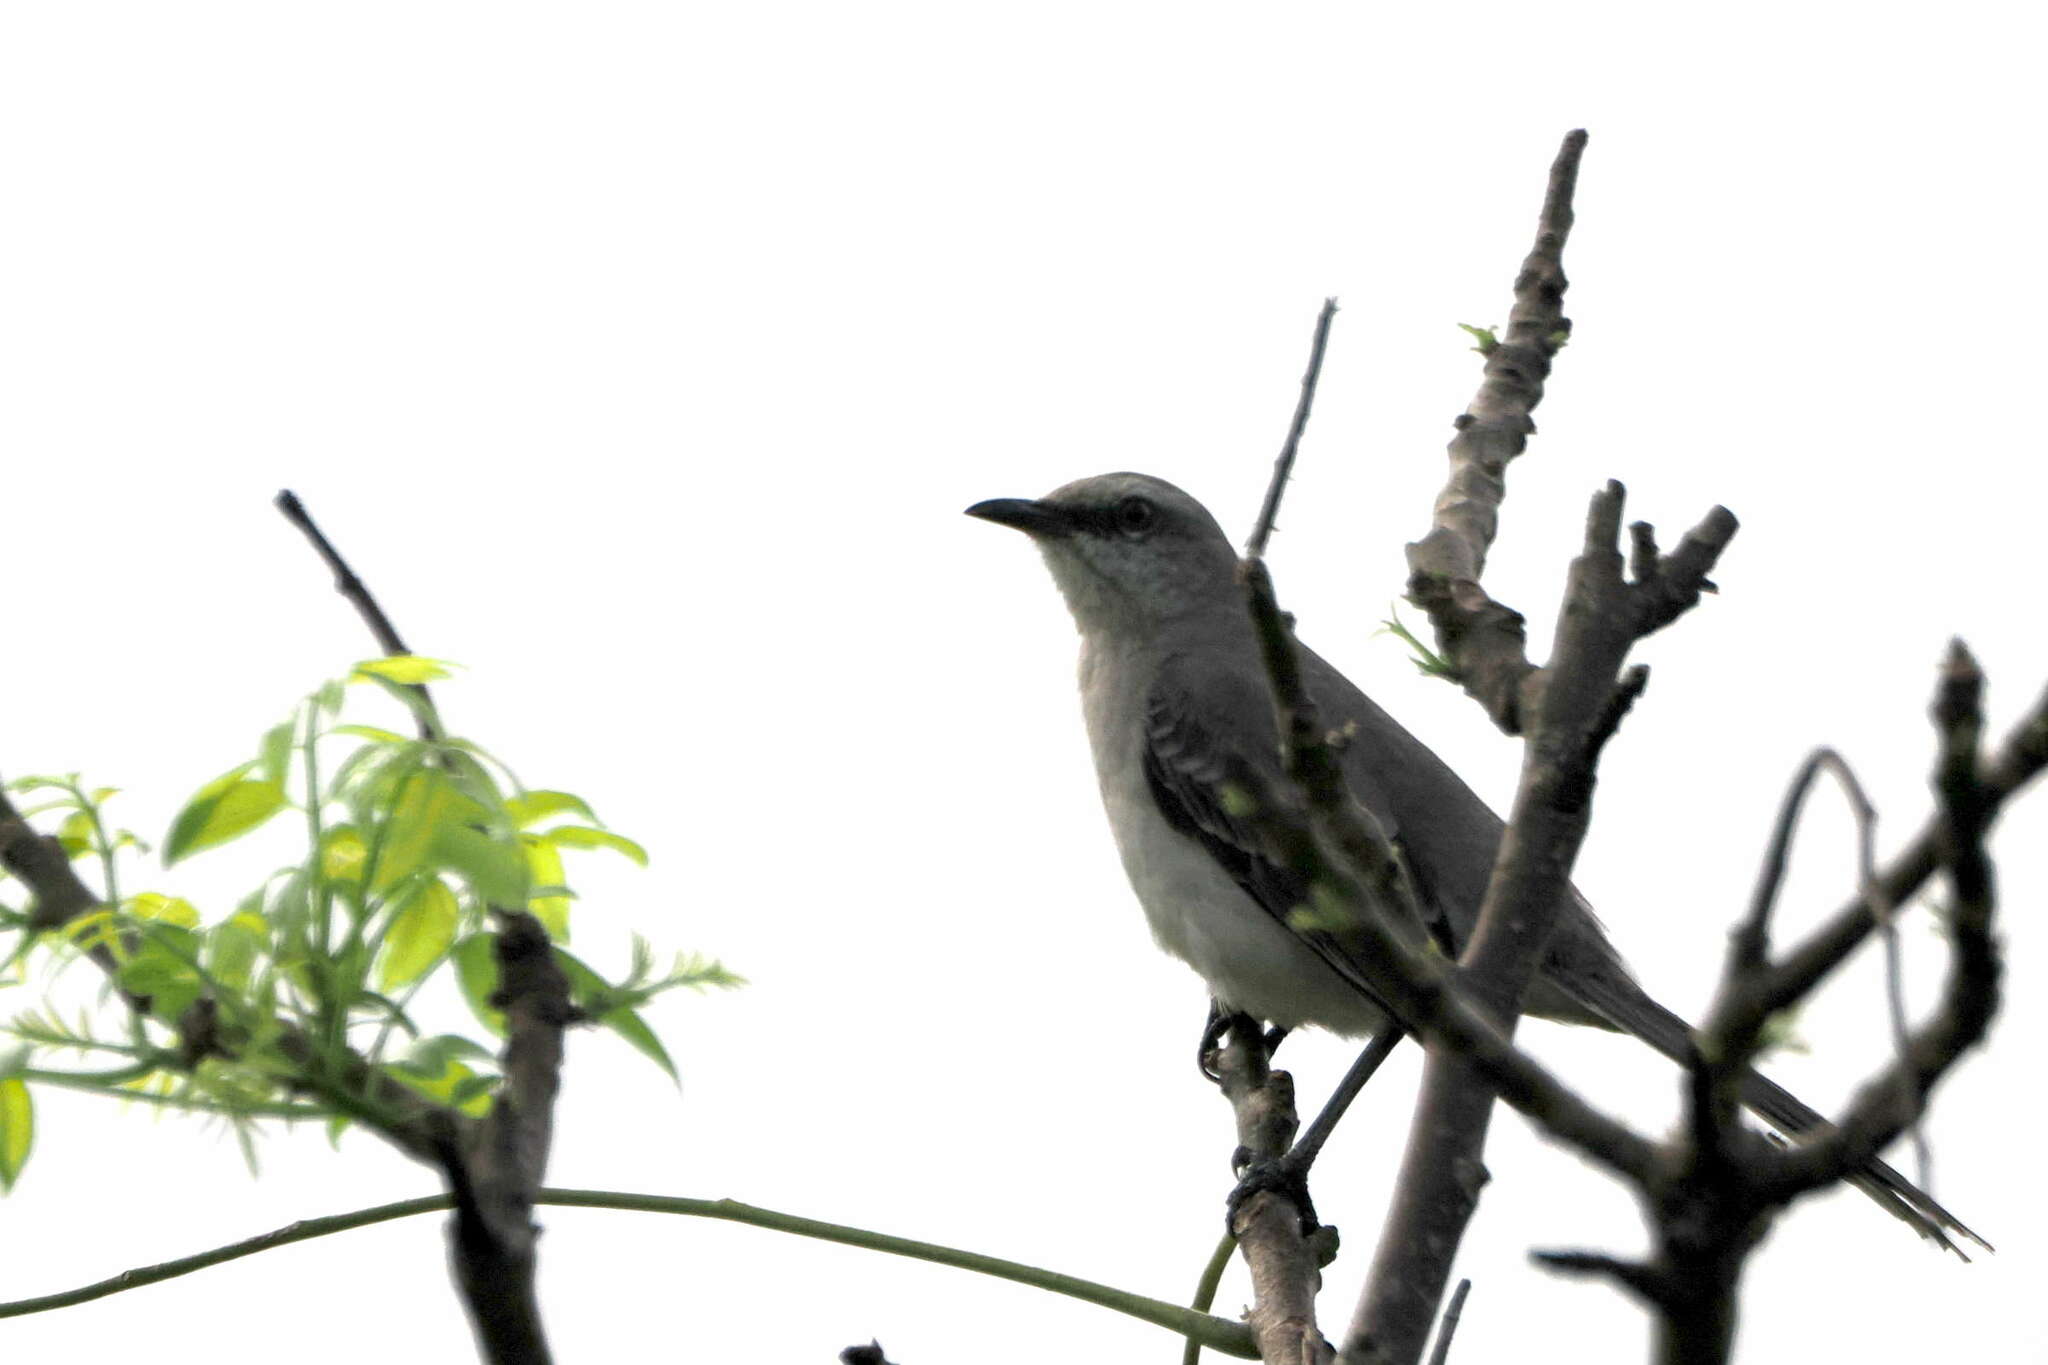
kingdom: Animalia
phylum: Chordata
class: Aves
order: Passeriformes
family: Mimidae
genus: Mimus
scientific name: Mimus gilvus
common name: Tropical mockingbird
